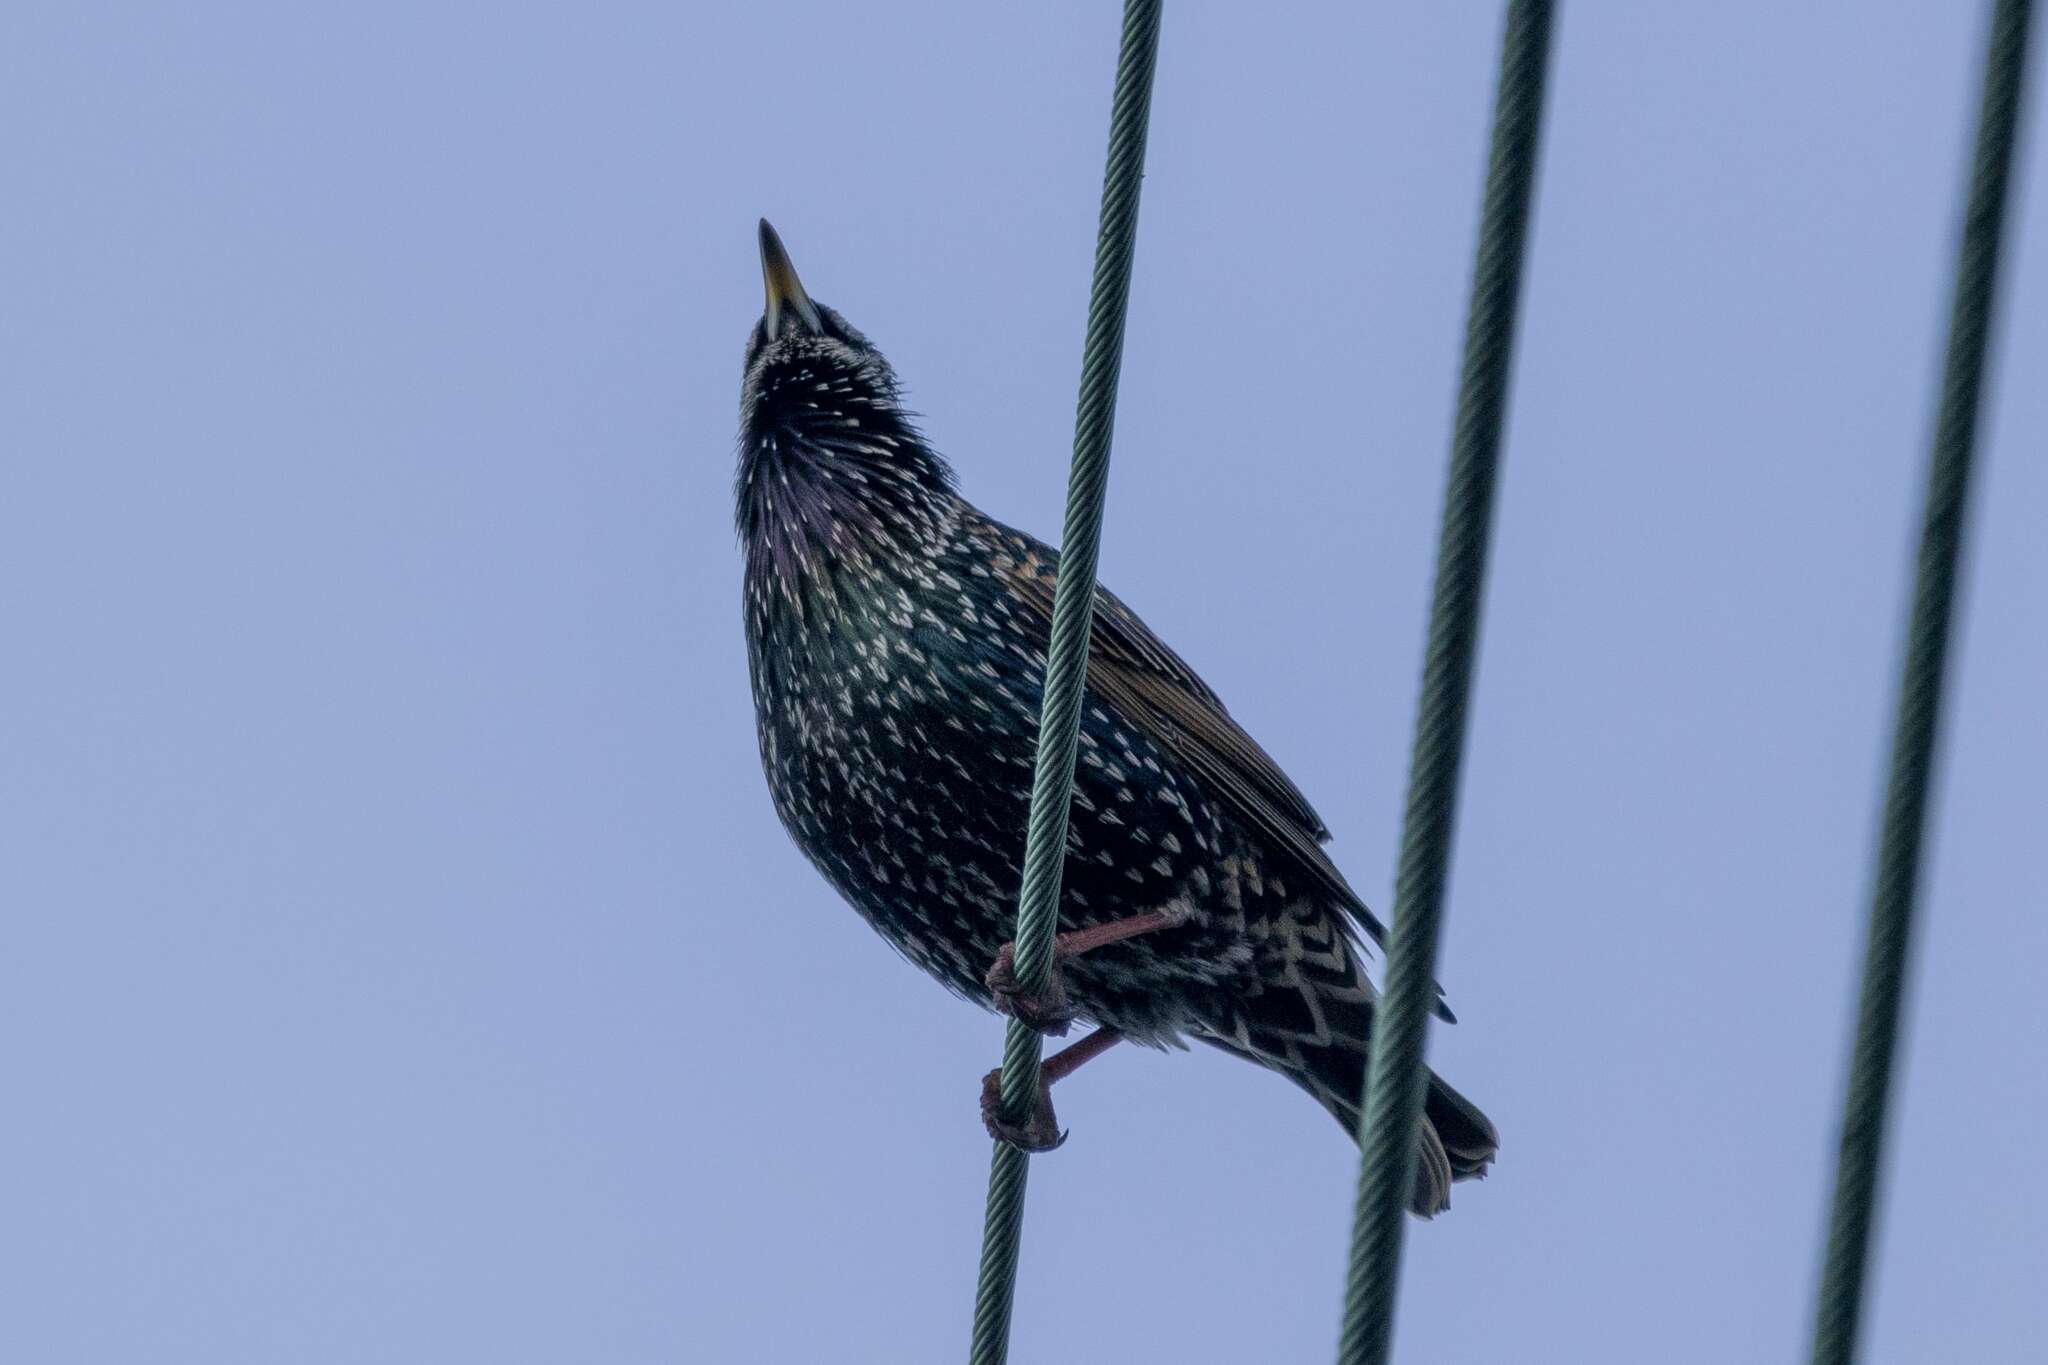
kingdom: Animalia
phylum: Chordata
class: Aves
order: Passeriformes
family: Sturnidae
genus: Sturnus
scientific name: Sturnus vulgaris
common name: Common starling
